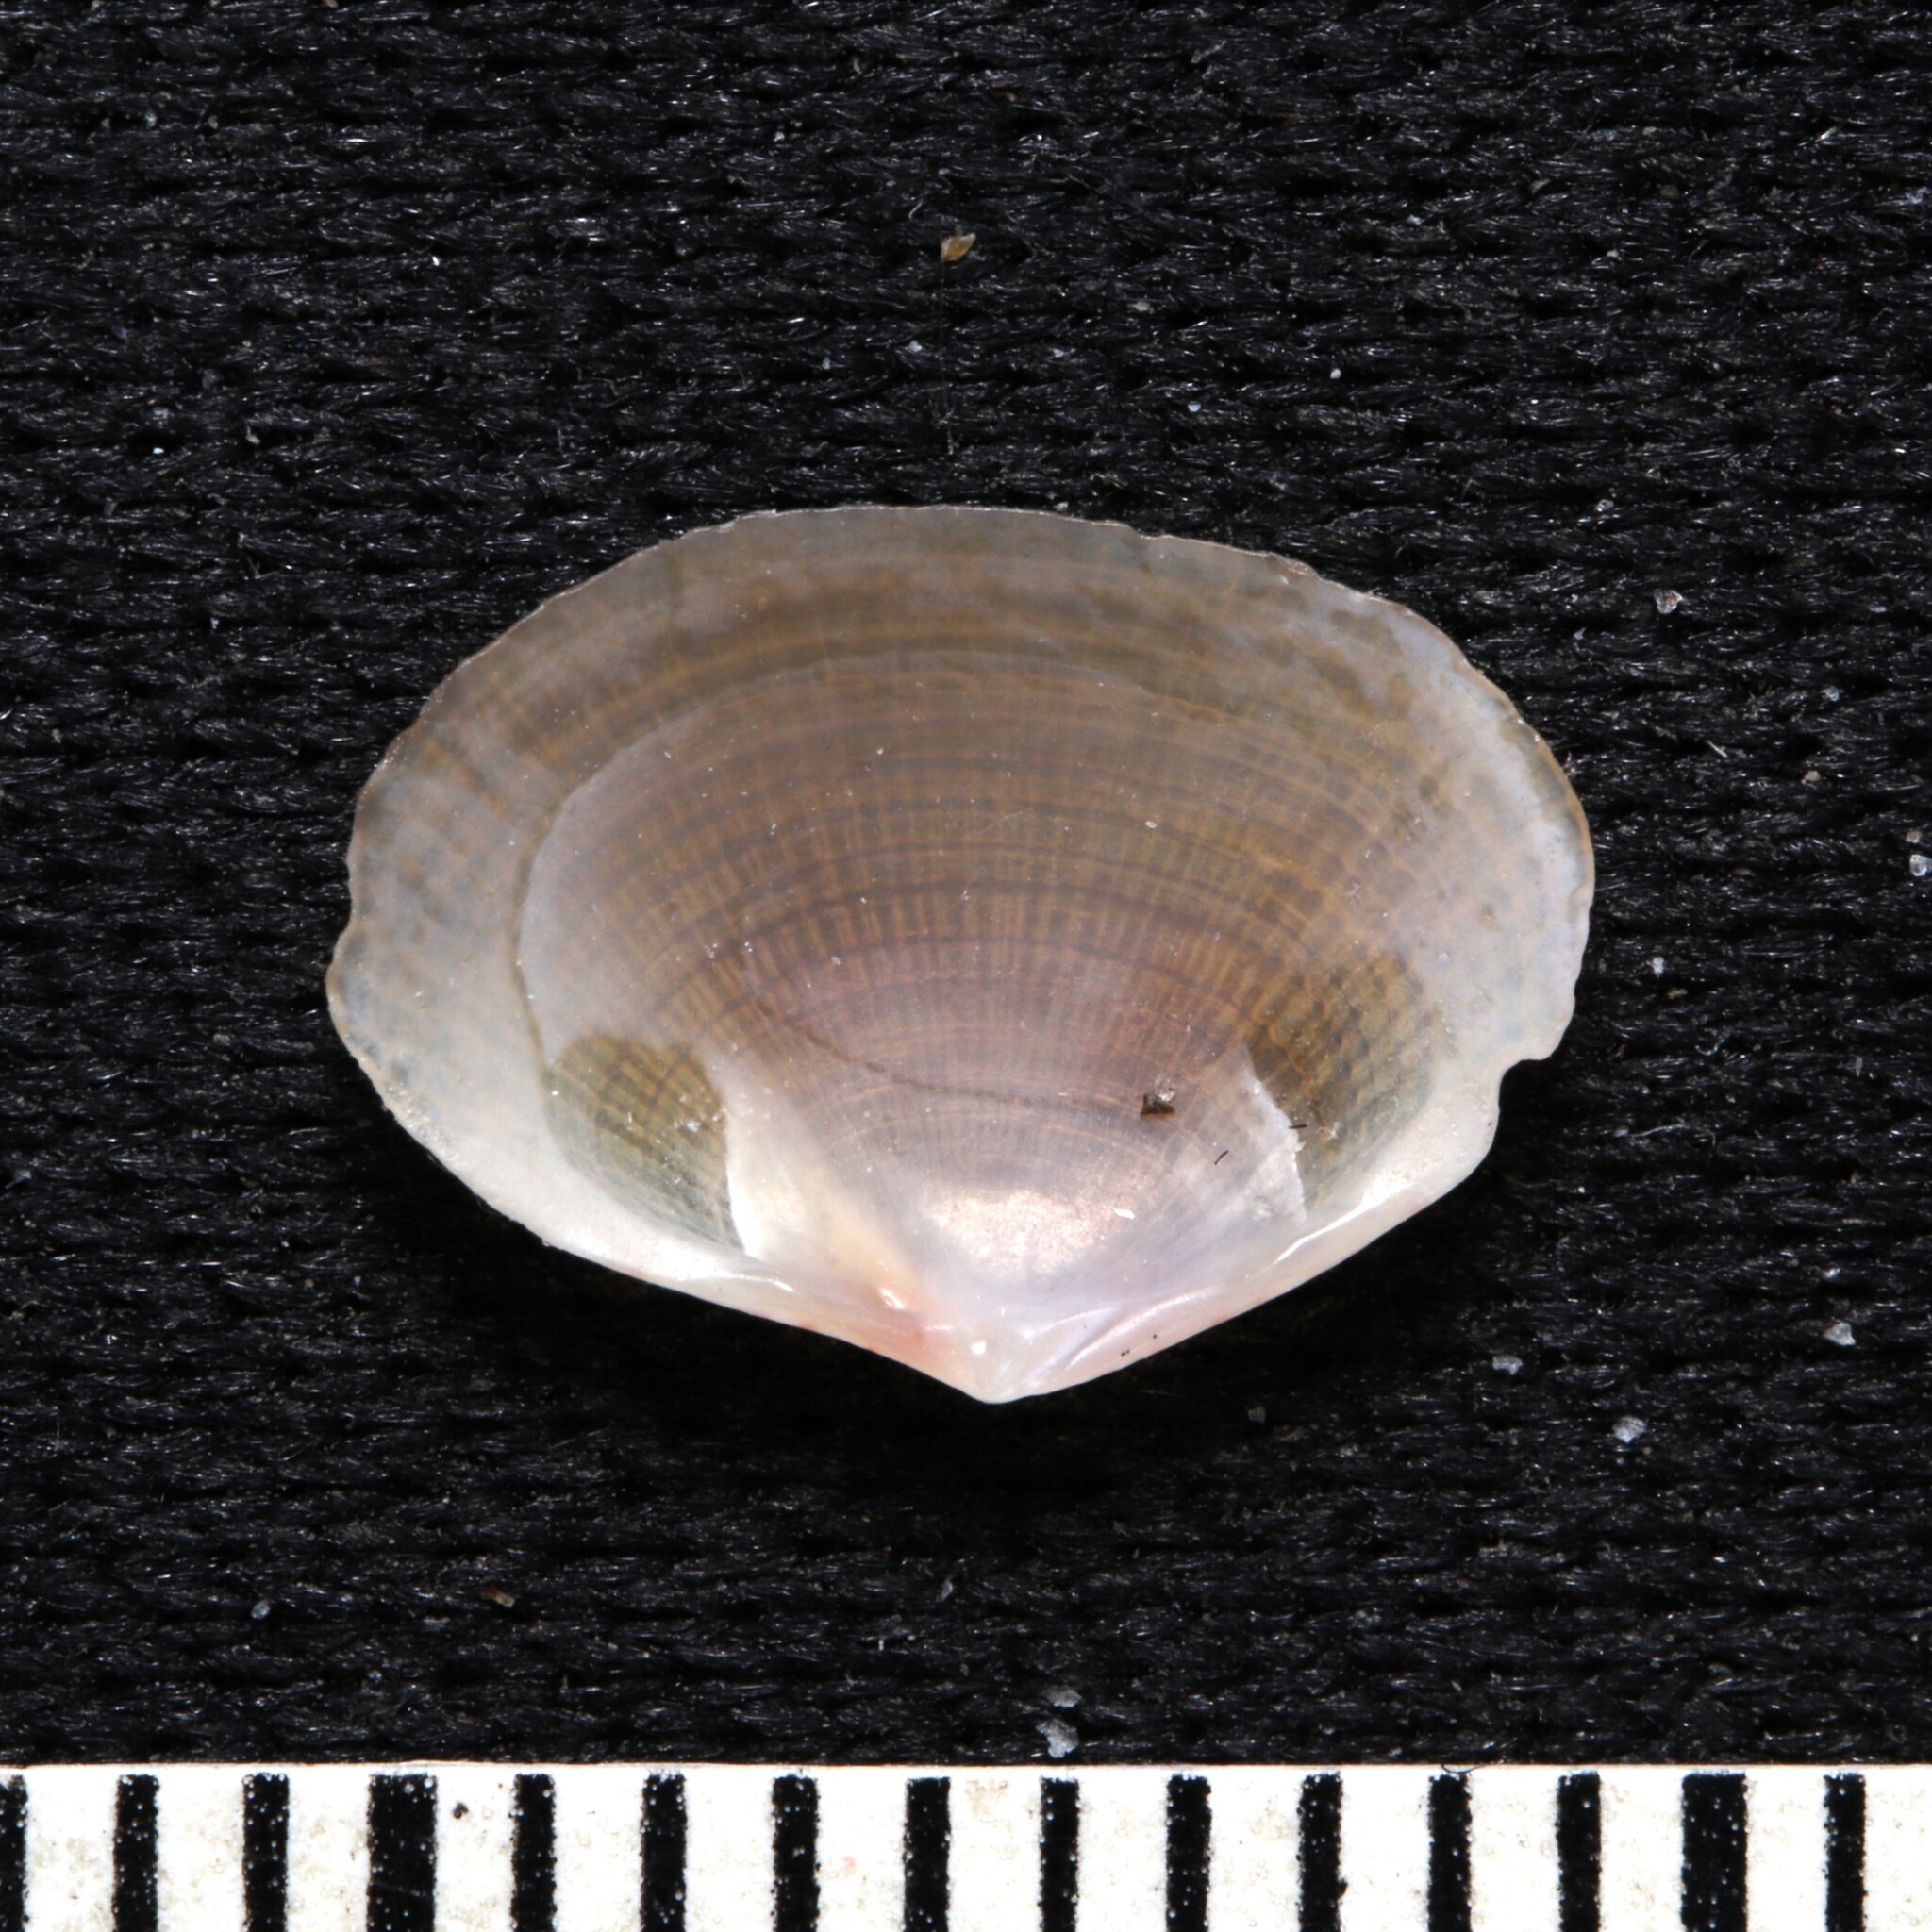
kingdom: Animalia
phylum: Mollusca
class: Bivalvia
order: Cardiida
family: Semelidae
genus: Semele
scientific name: Semele bellastriata
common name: Cancellate semele
